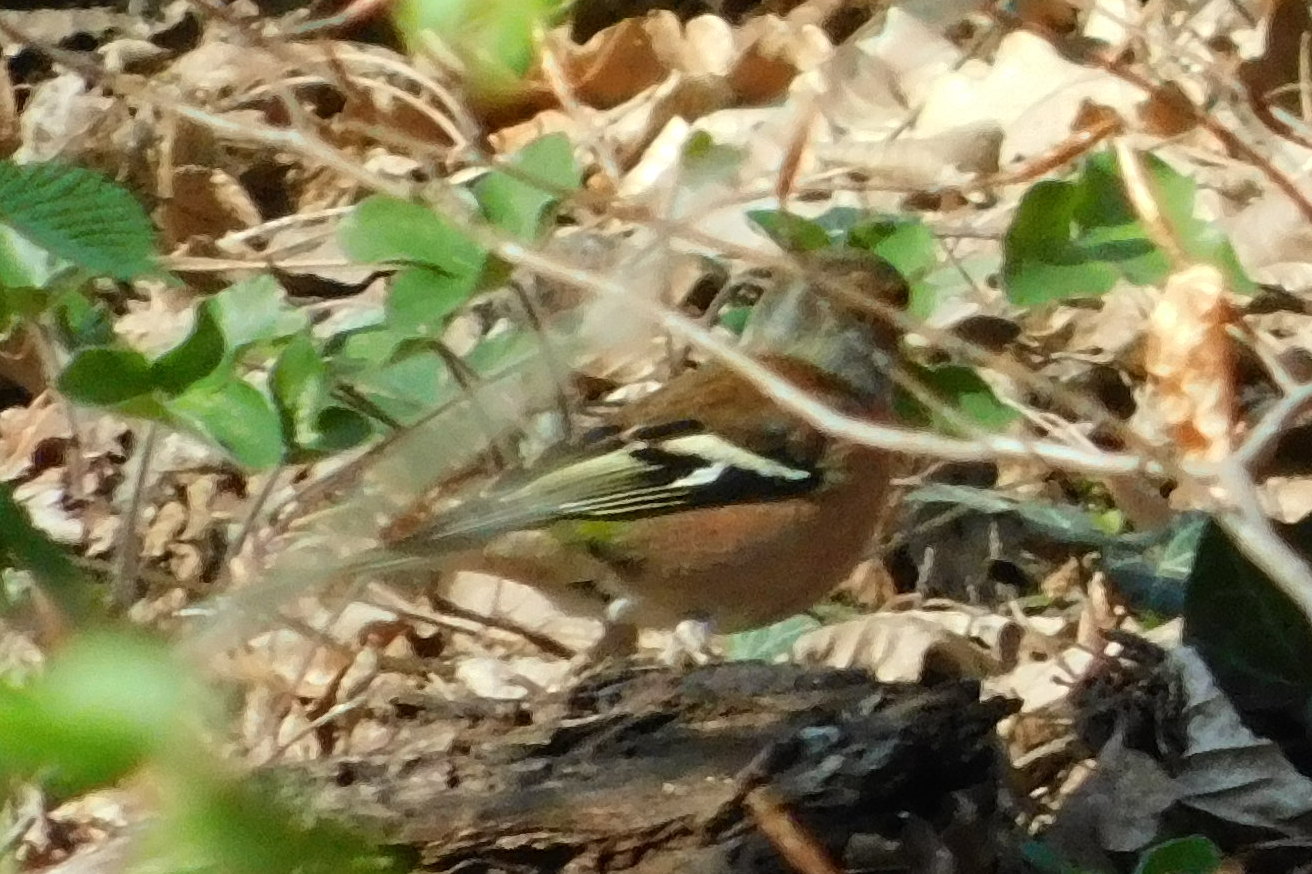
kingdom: Animalia
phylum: Chordata
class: Aves
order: Passeriformes
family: Fringillidae
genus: Fringilla
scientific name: Fringilla coelebs
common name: Common chaffinch
